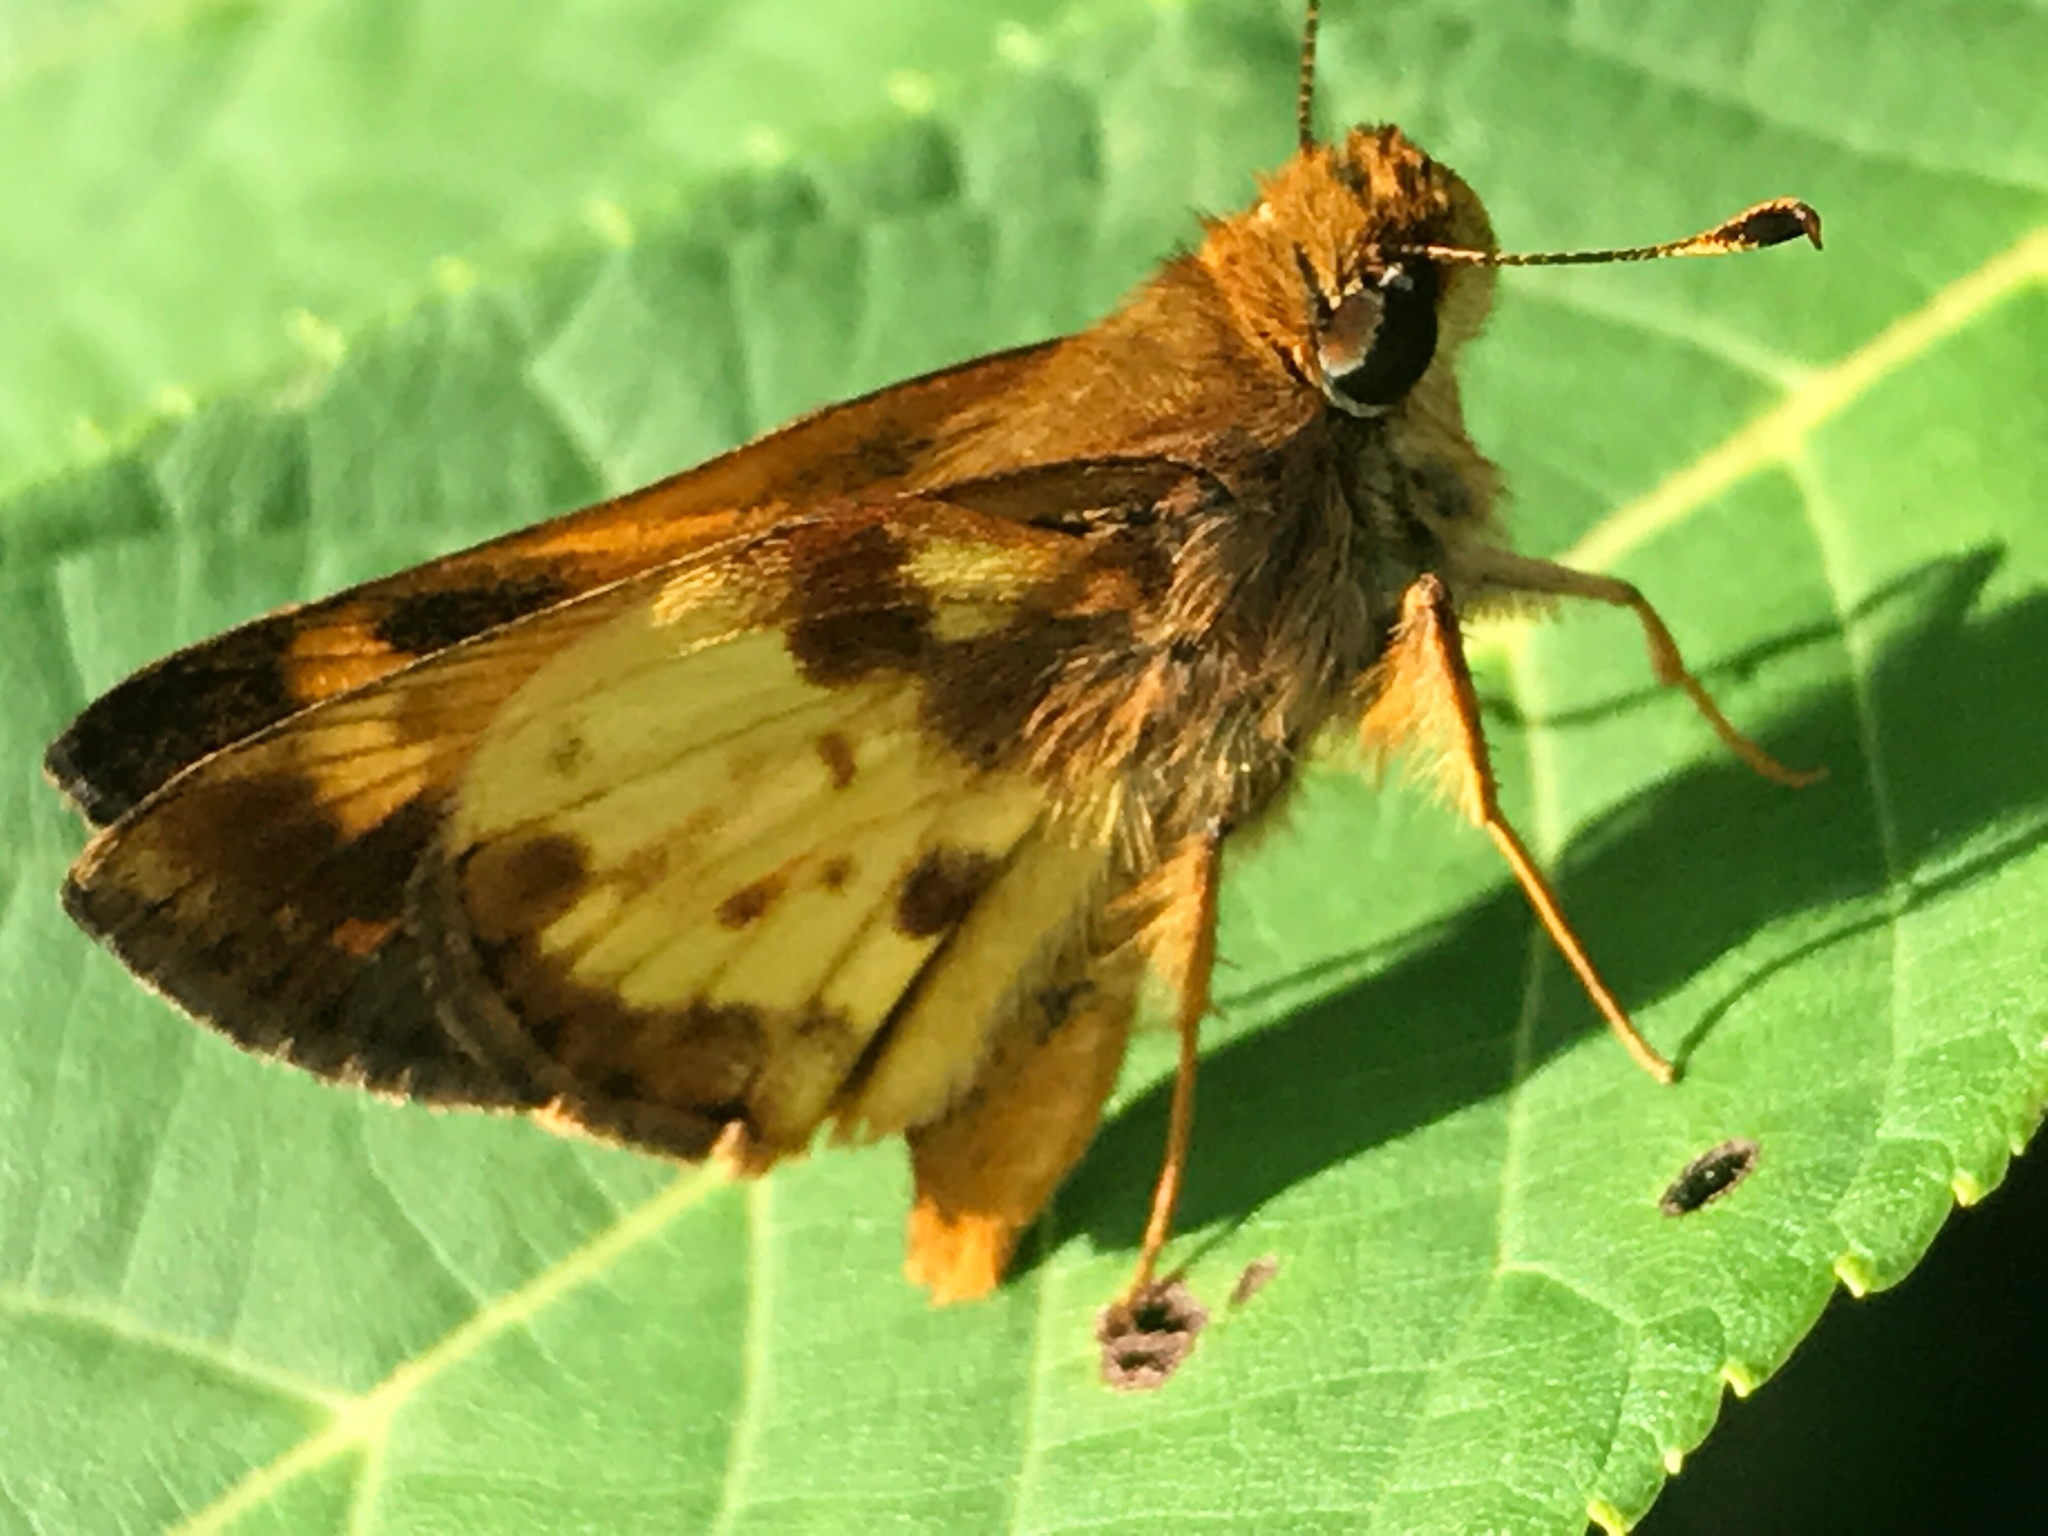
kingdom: Animalia
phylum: Arthropoda
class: Insecta
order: Lepidoptera
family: Hesperiidae
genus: Lon
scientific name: Lon zabulon
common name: Zabulon skipper
